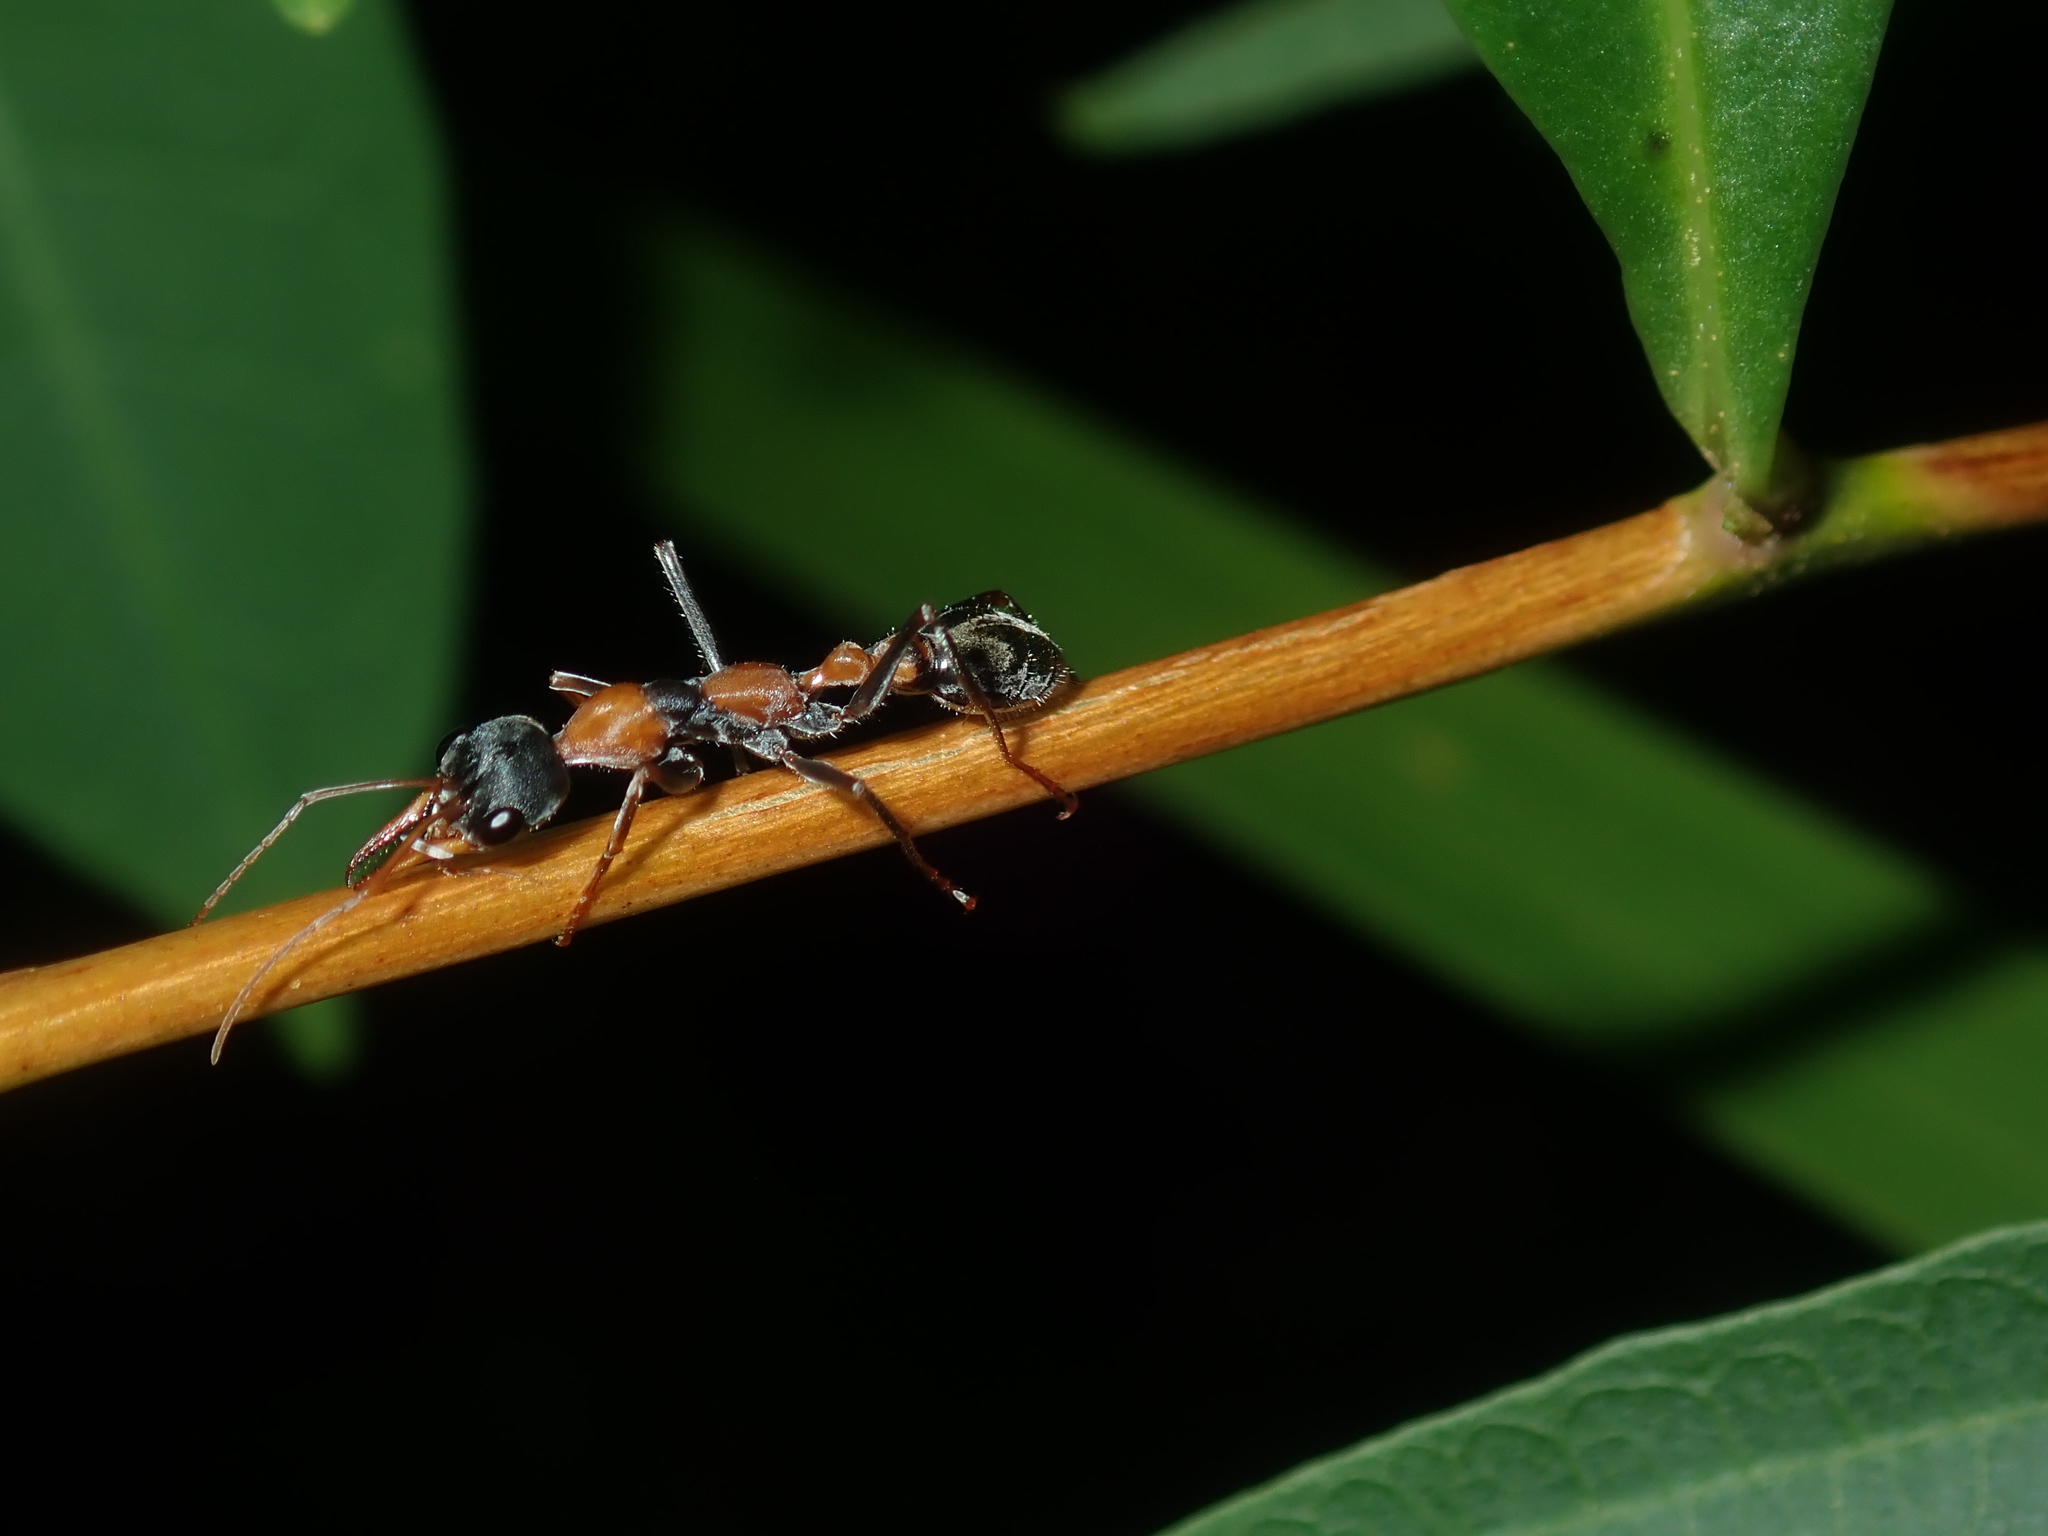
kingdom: Animalia
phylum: Arthropoda
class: Insecta
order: Hymenoptera
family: Formicidae
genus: Myrmecia
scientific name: Myrmecia nigrocincta
